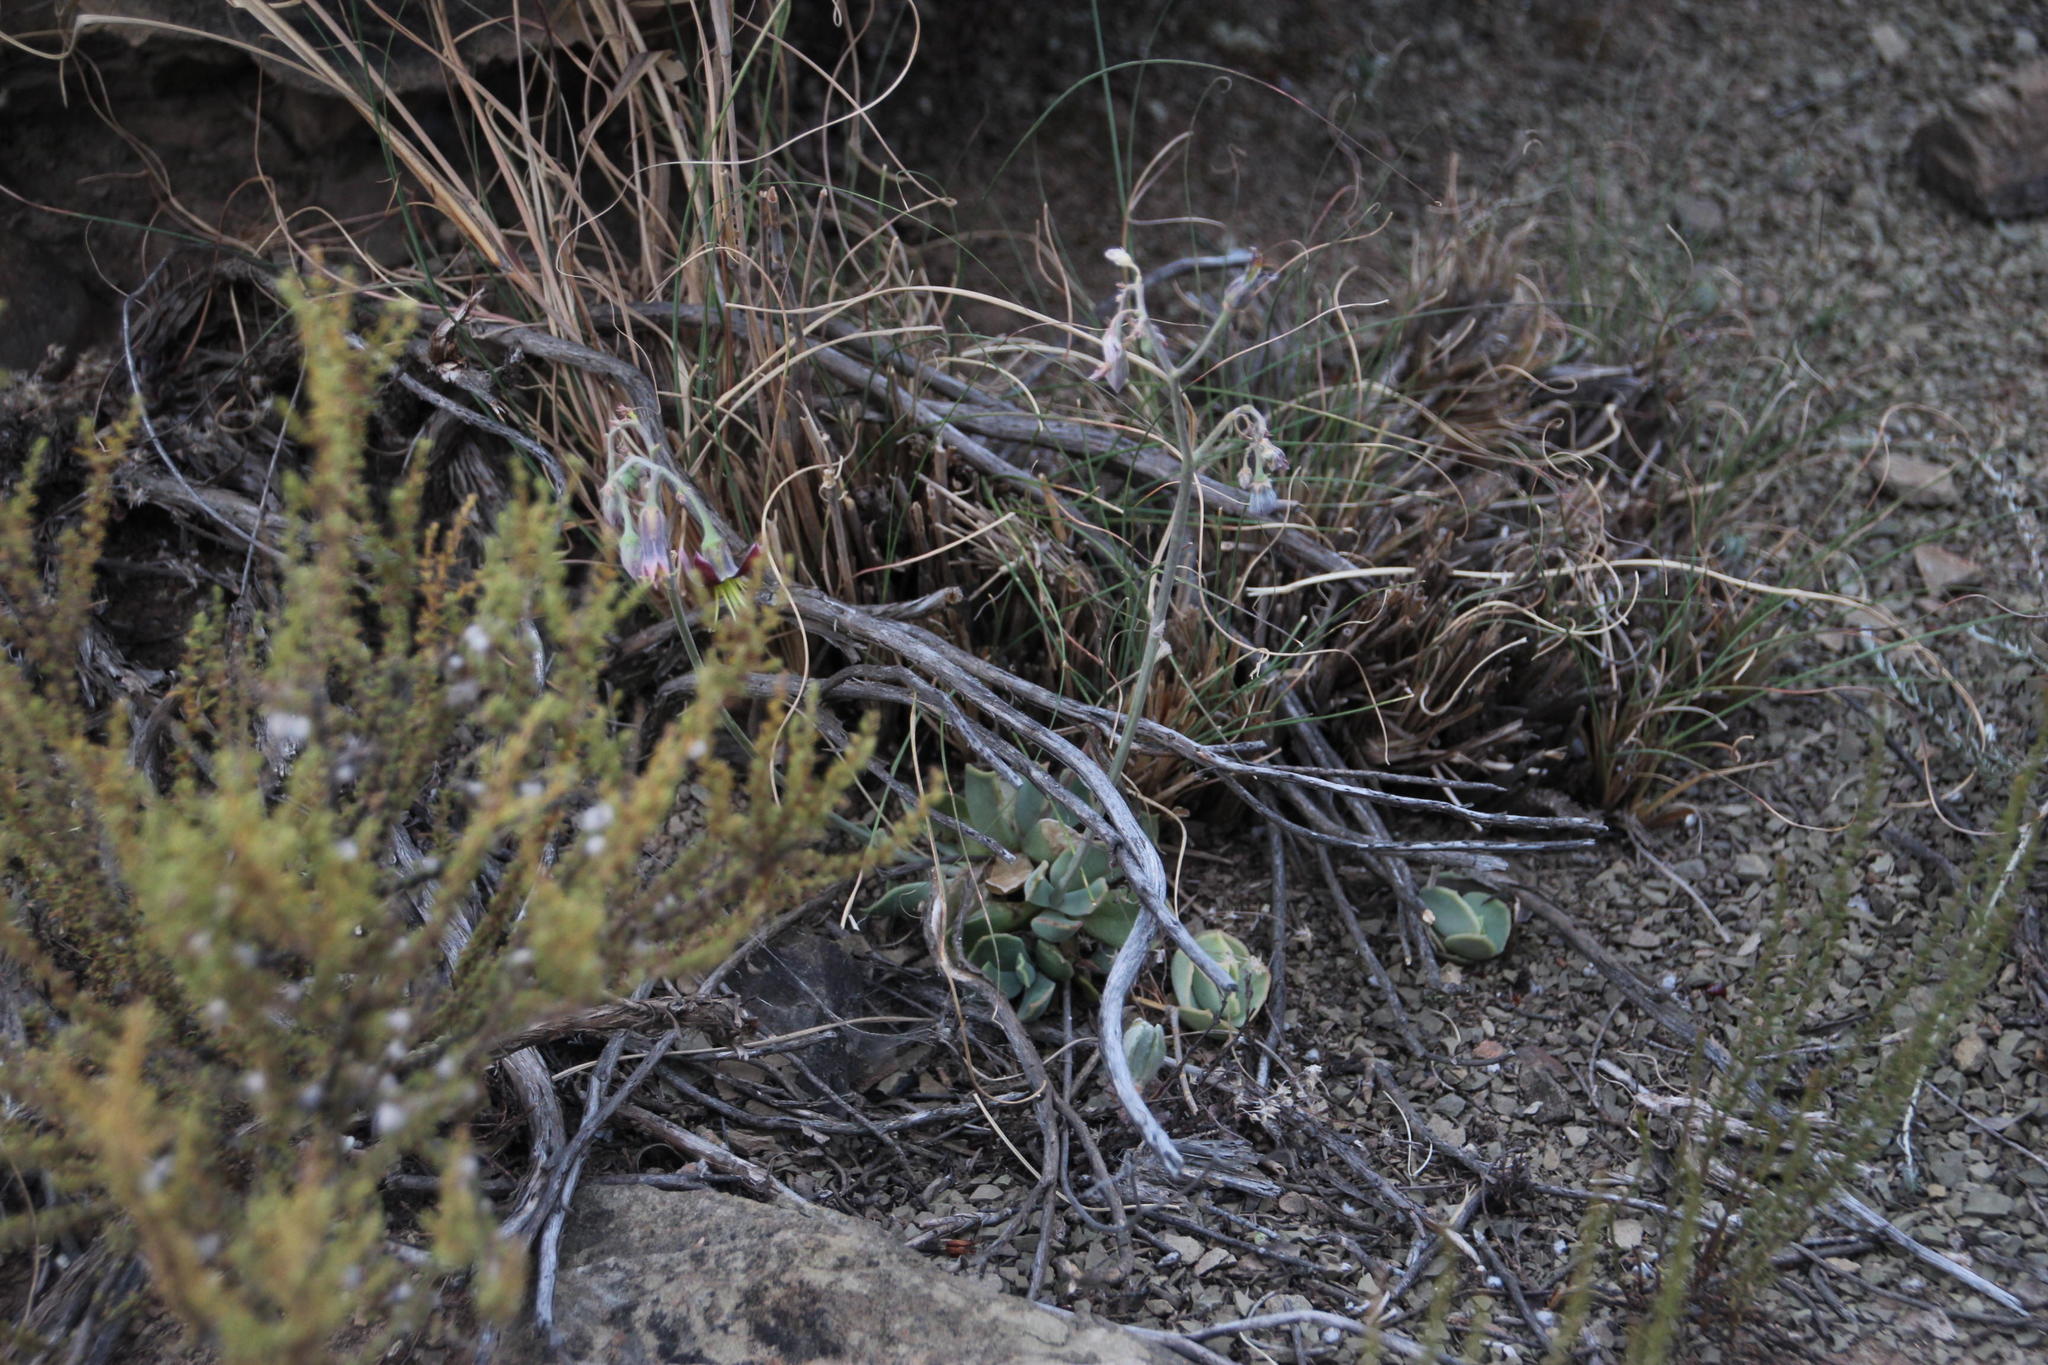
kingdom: Plantae
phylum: Tracheophyta
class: Magnoliopsida
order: Saxifragales
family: Crassulaceae
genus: Cotyledon
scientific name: Cotyledon papillaris
